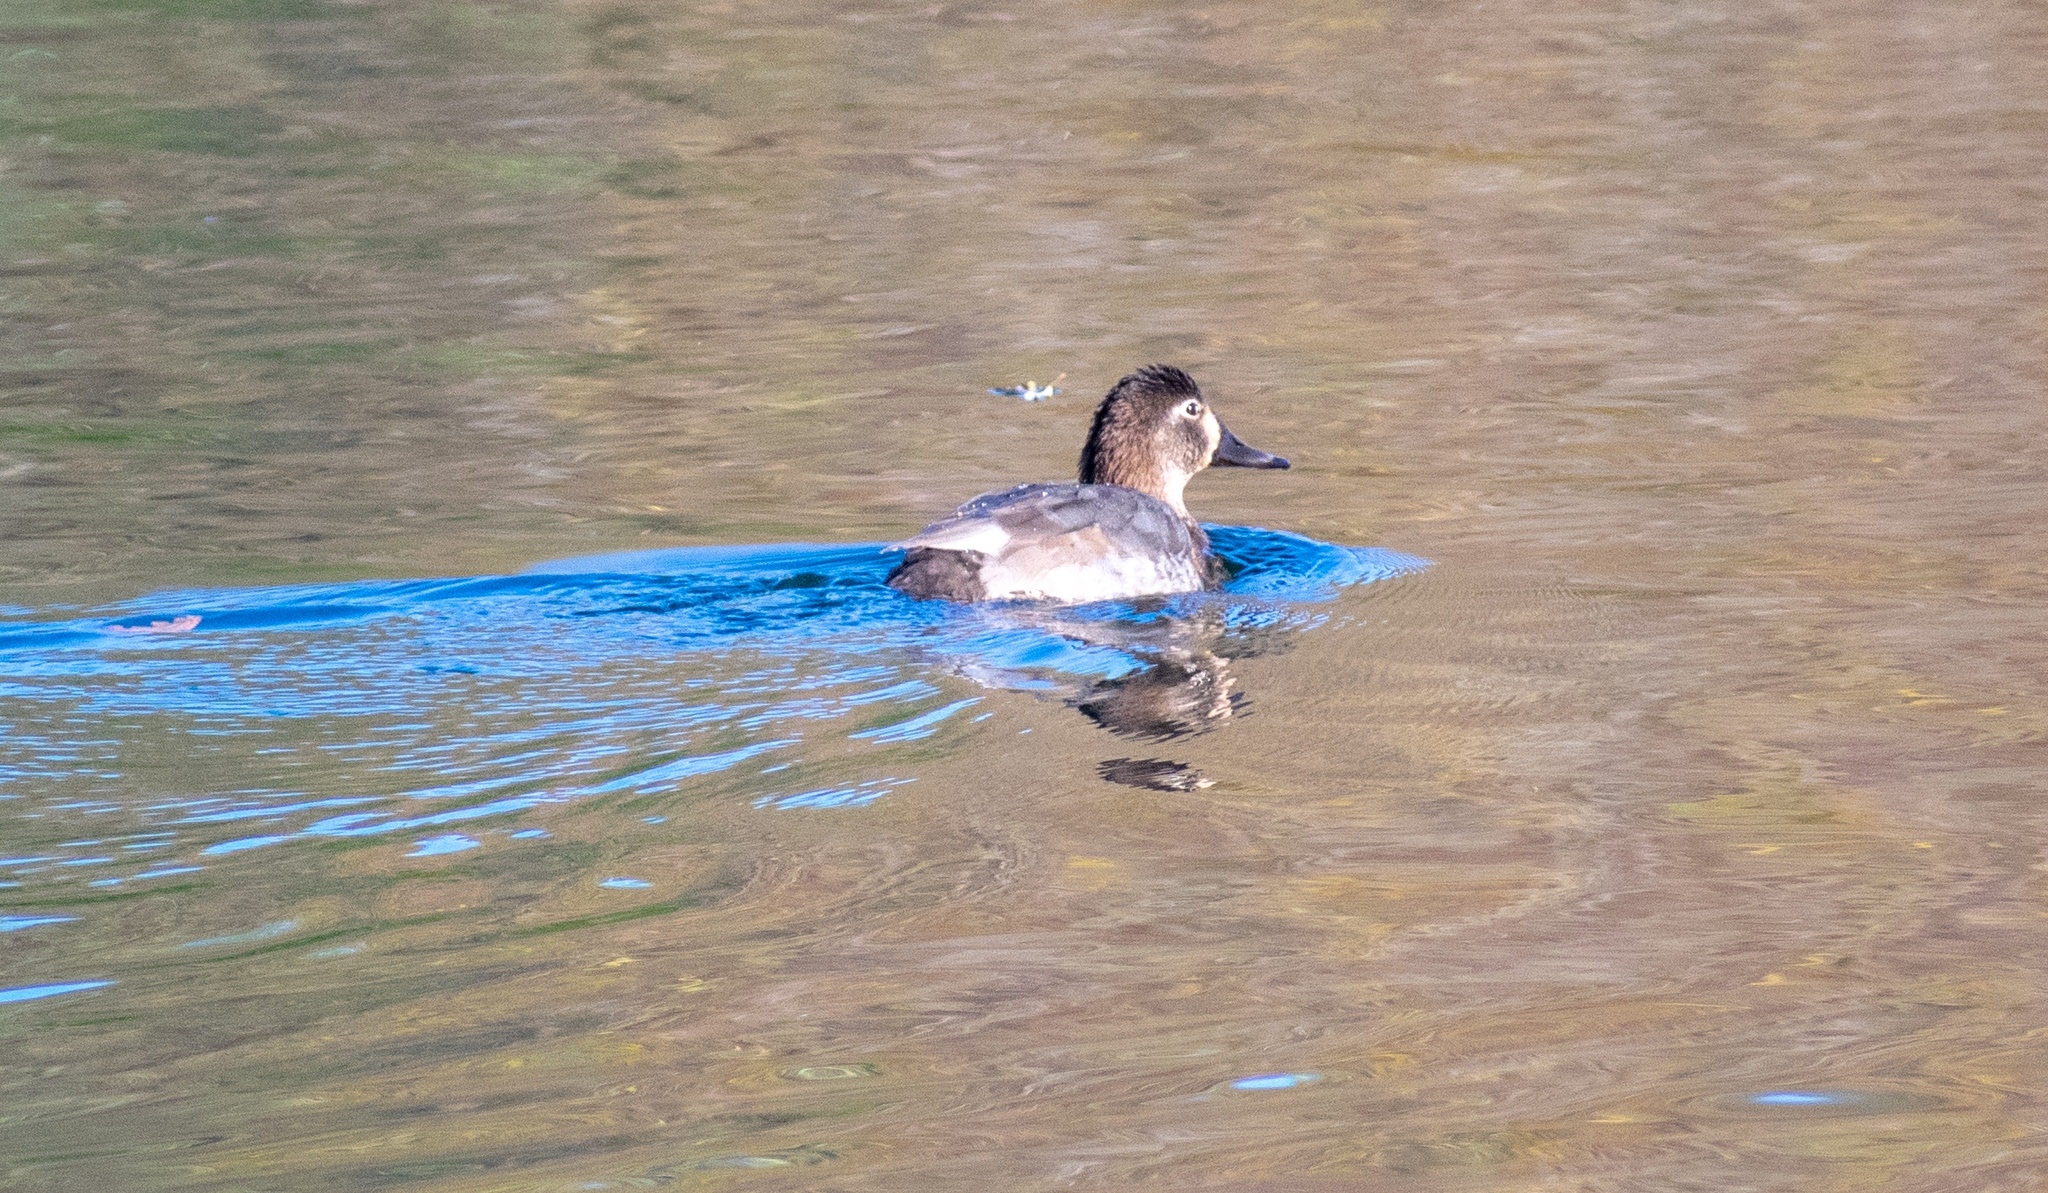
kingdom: Animalia
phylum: Chordata
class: Aves
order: Anseriformes
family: Anatidae
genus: Aythya
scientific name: Aythya ferina
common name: Common pochard
